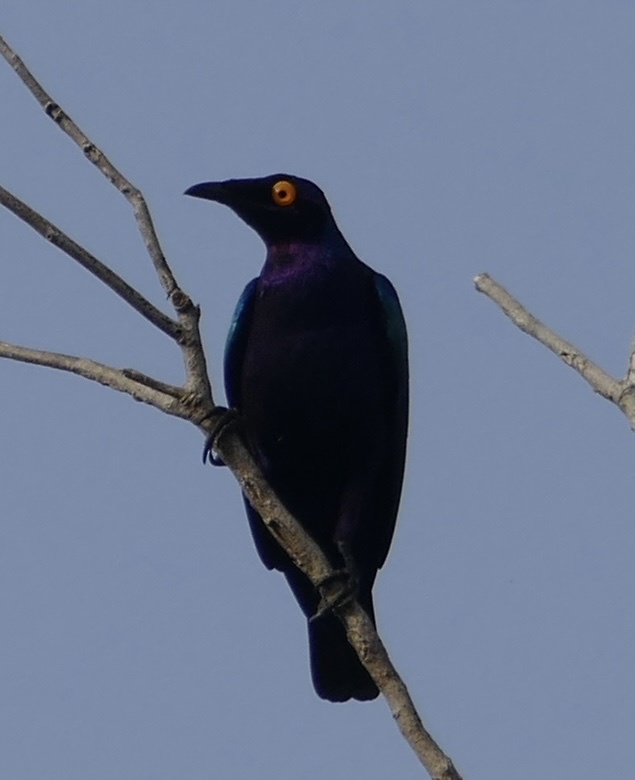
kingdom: Animalia
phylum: Chordata
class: Aves
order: Passeriformes
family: Sturnidae
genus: Lamprotornis
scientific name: Lamprotornis purpureus
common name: Purple starling
